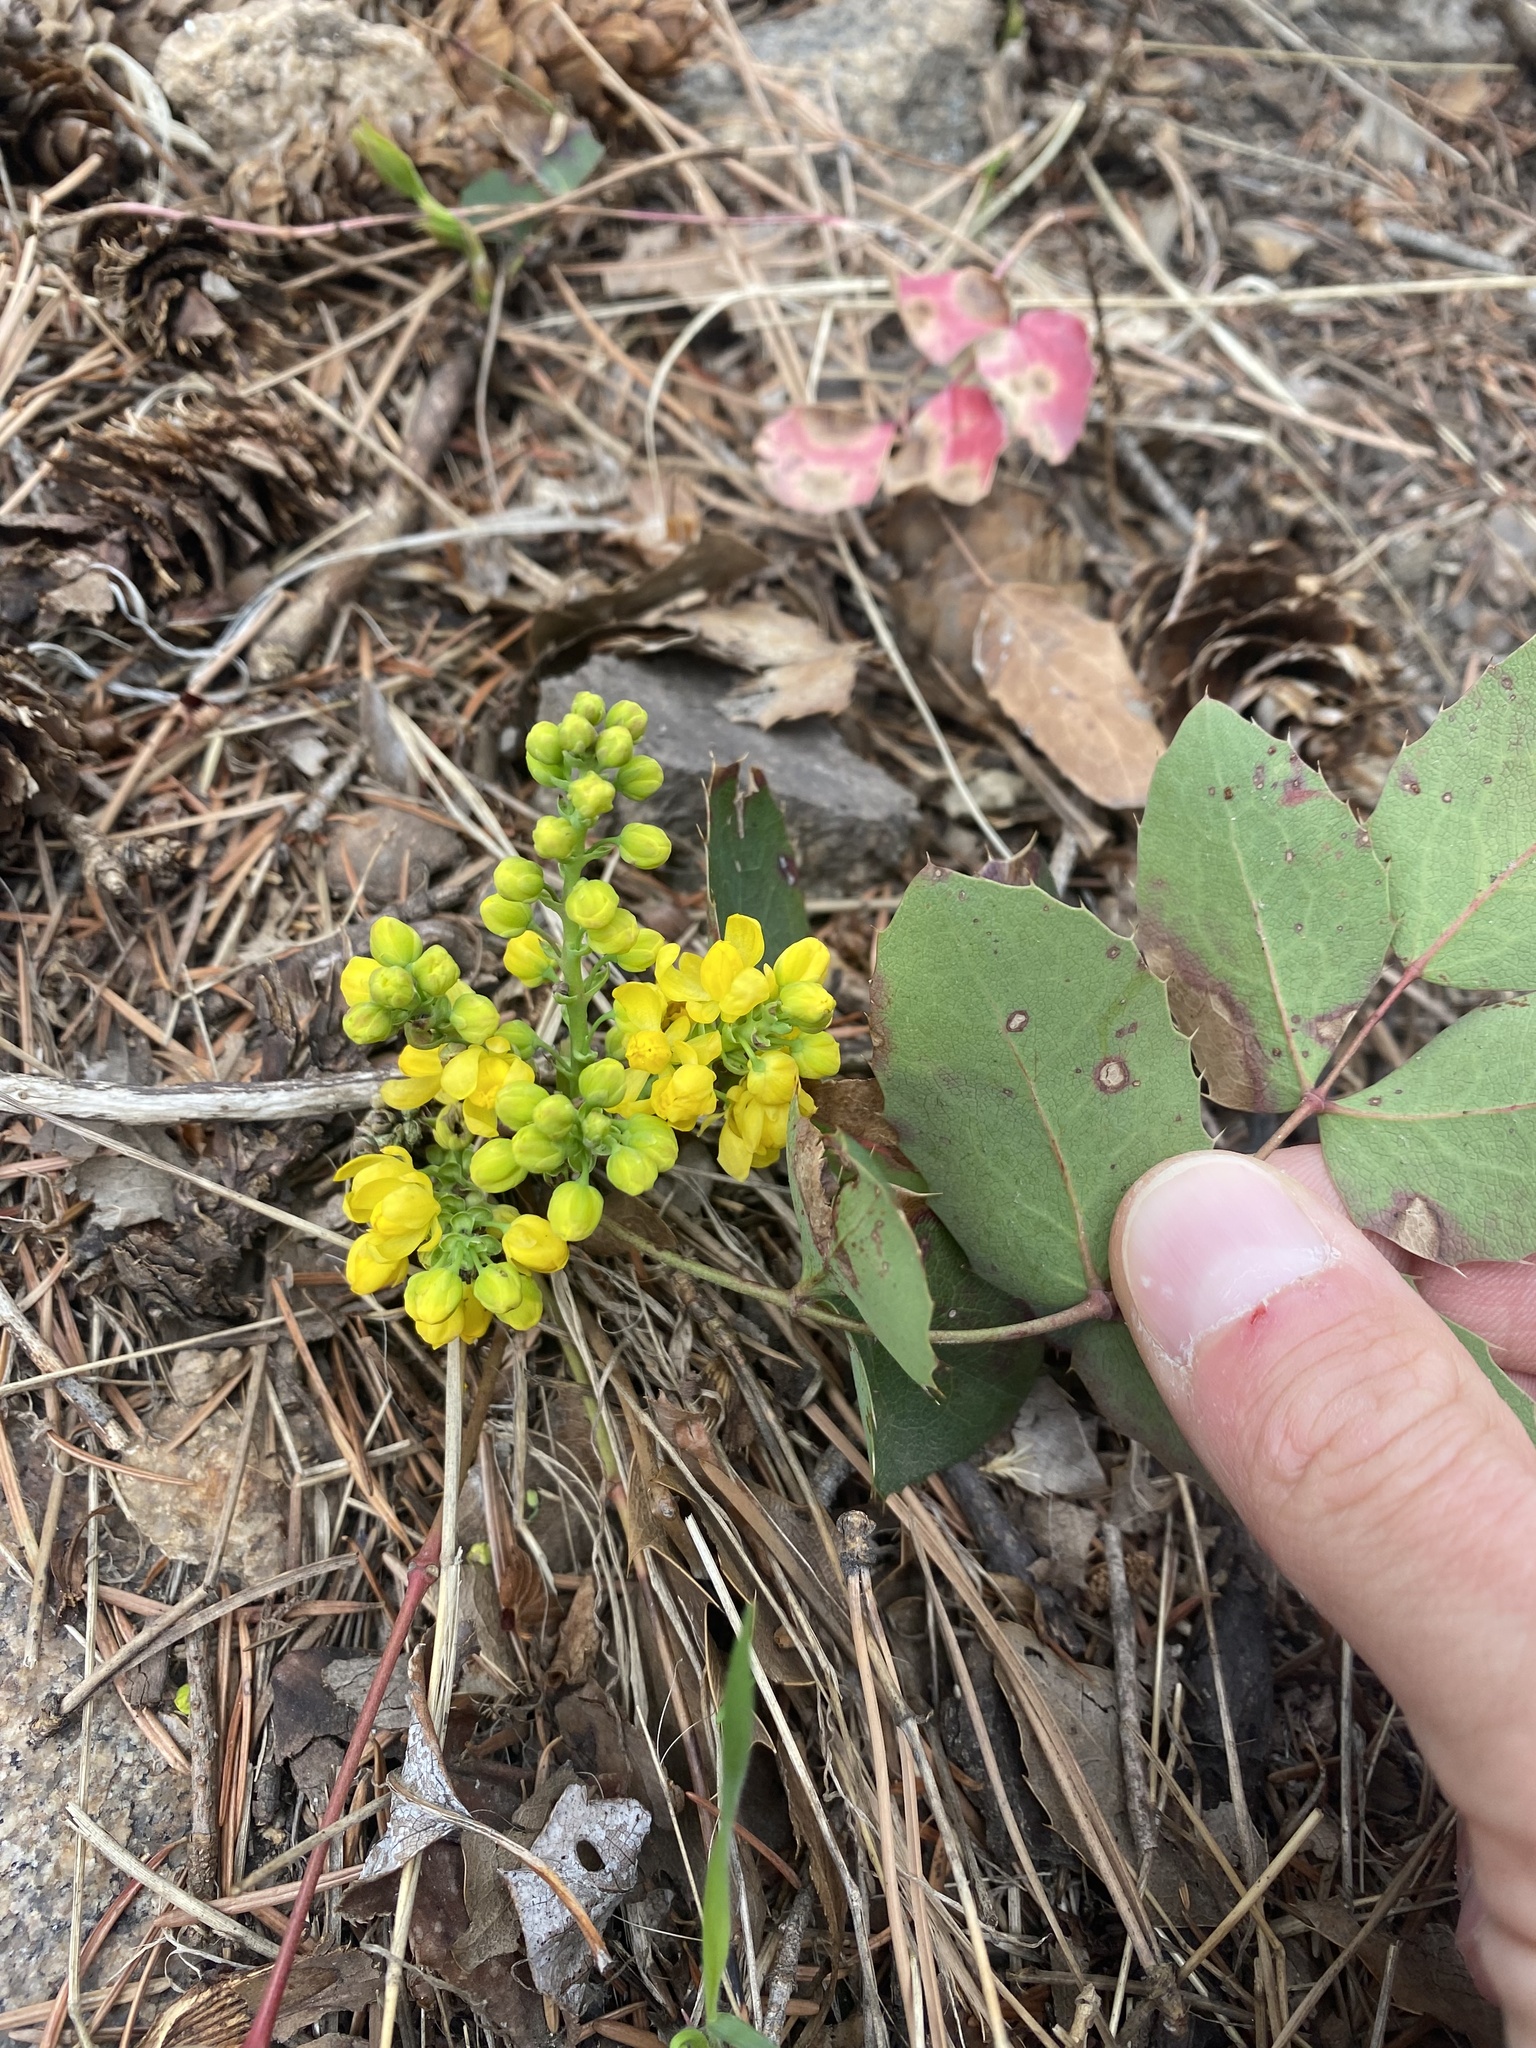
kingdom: Plantae
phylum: Tracheophyta
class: Magnoliopsida
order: Ranunculales
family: Berberidaceae
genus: Mahonia
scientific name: Mahonia repens
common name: Creeping oregon-grape
